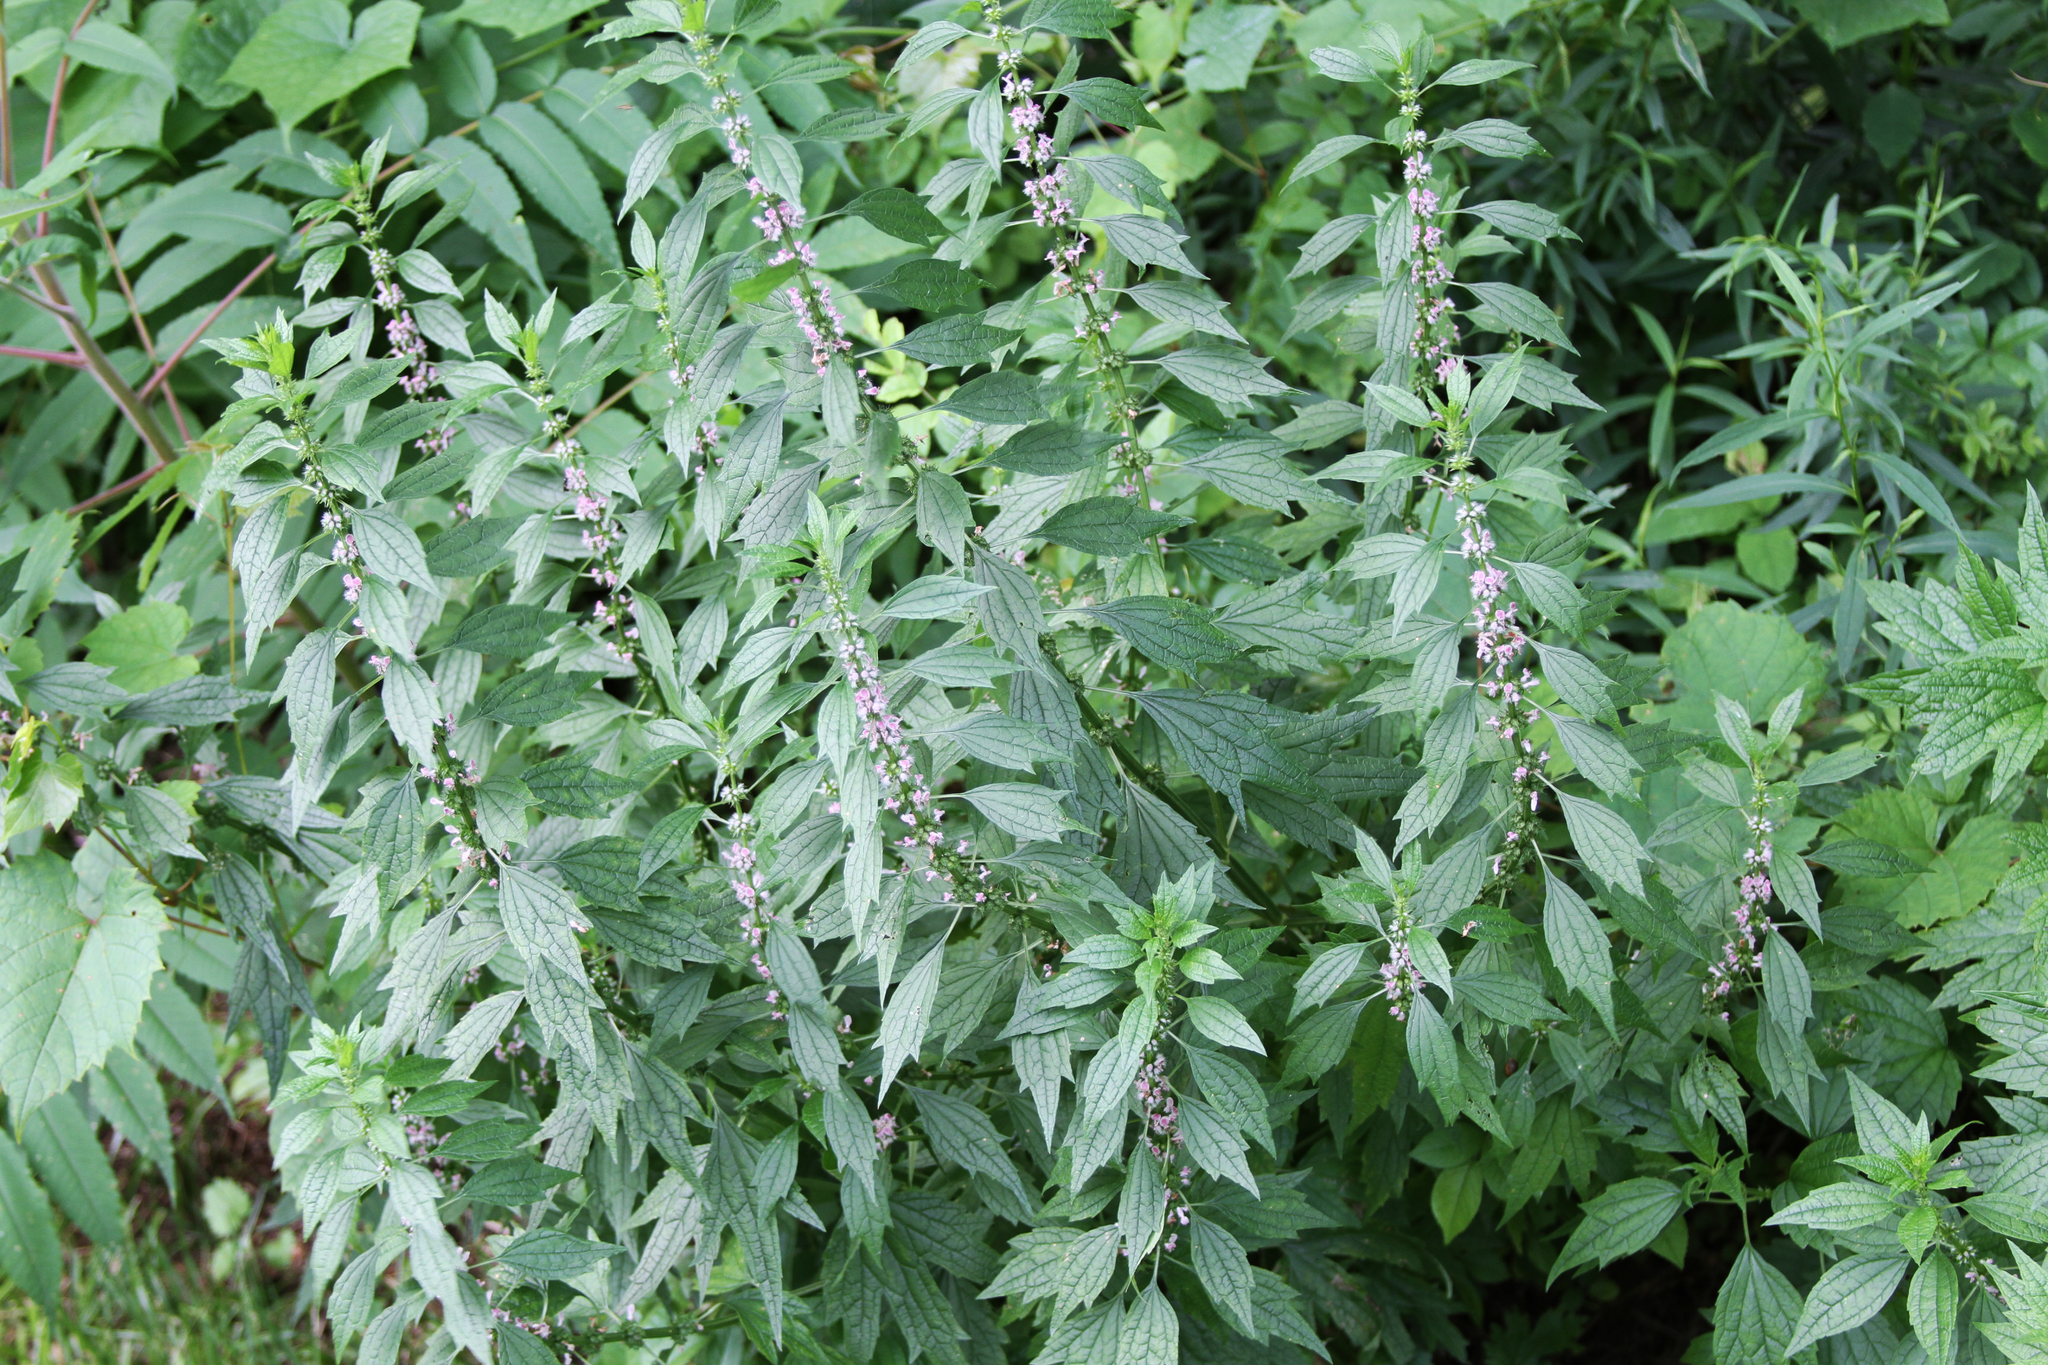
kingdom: Plantae
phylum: Tracheophyta
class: Magnoliopsida
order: Lamiales
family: Lamiaceae
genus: Leonurus
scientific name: Leonurus cardiaca
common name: Motherwort
